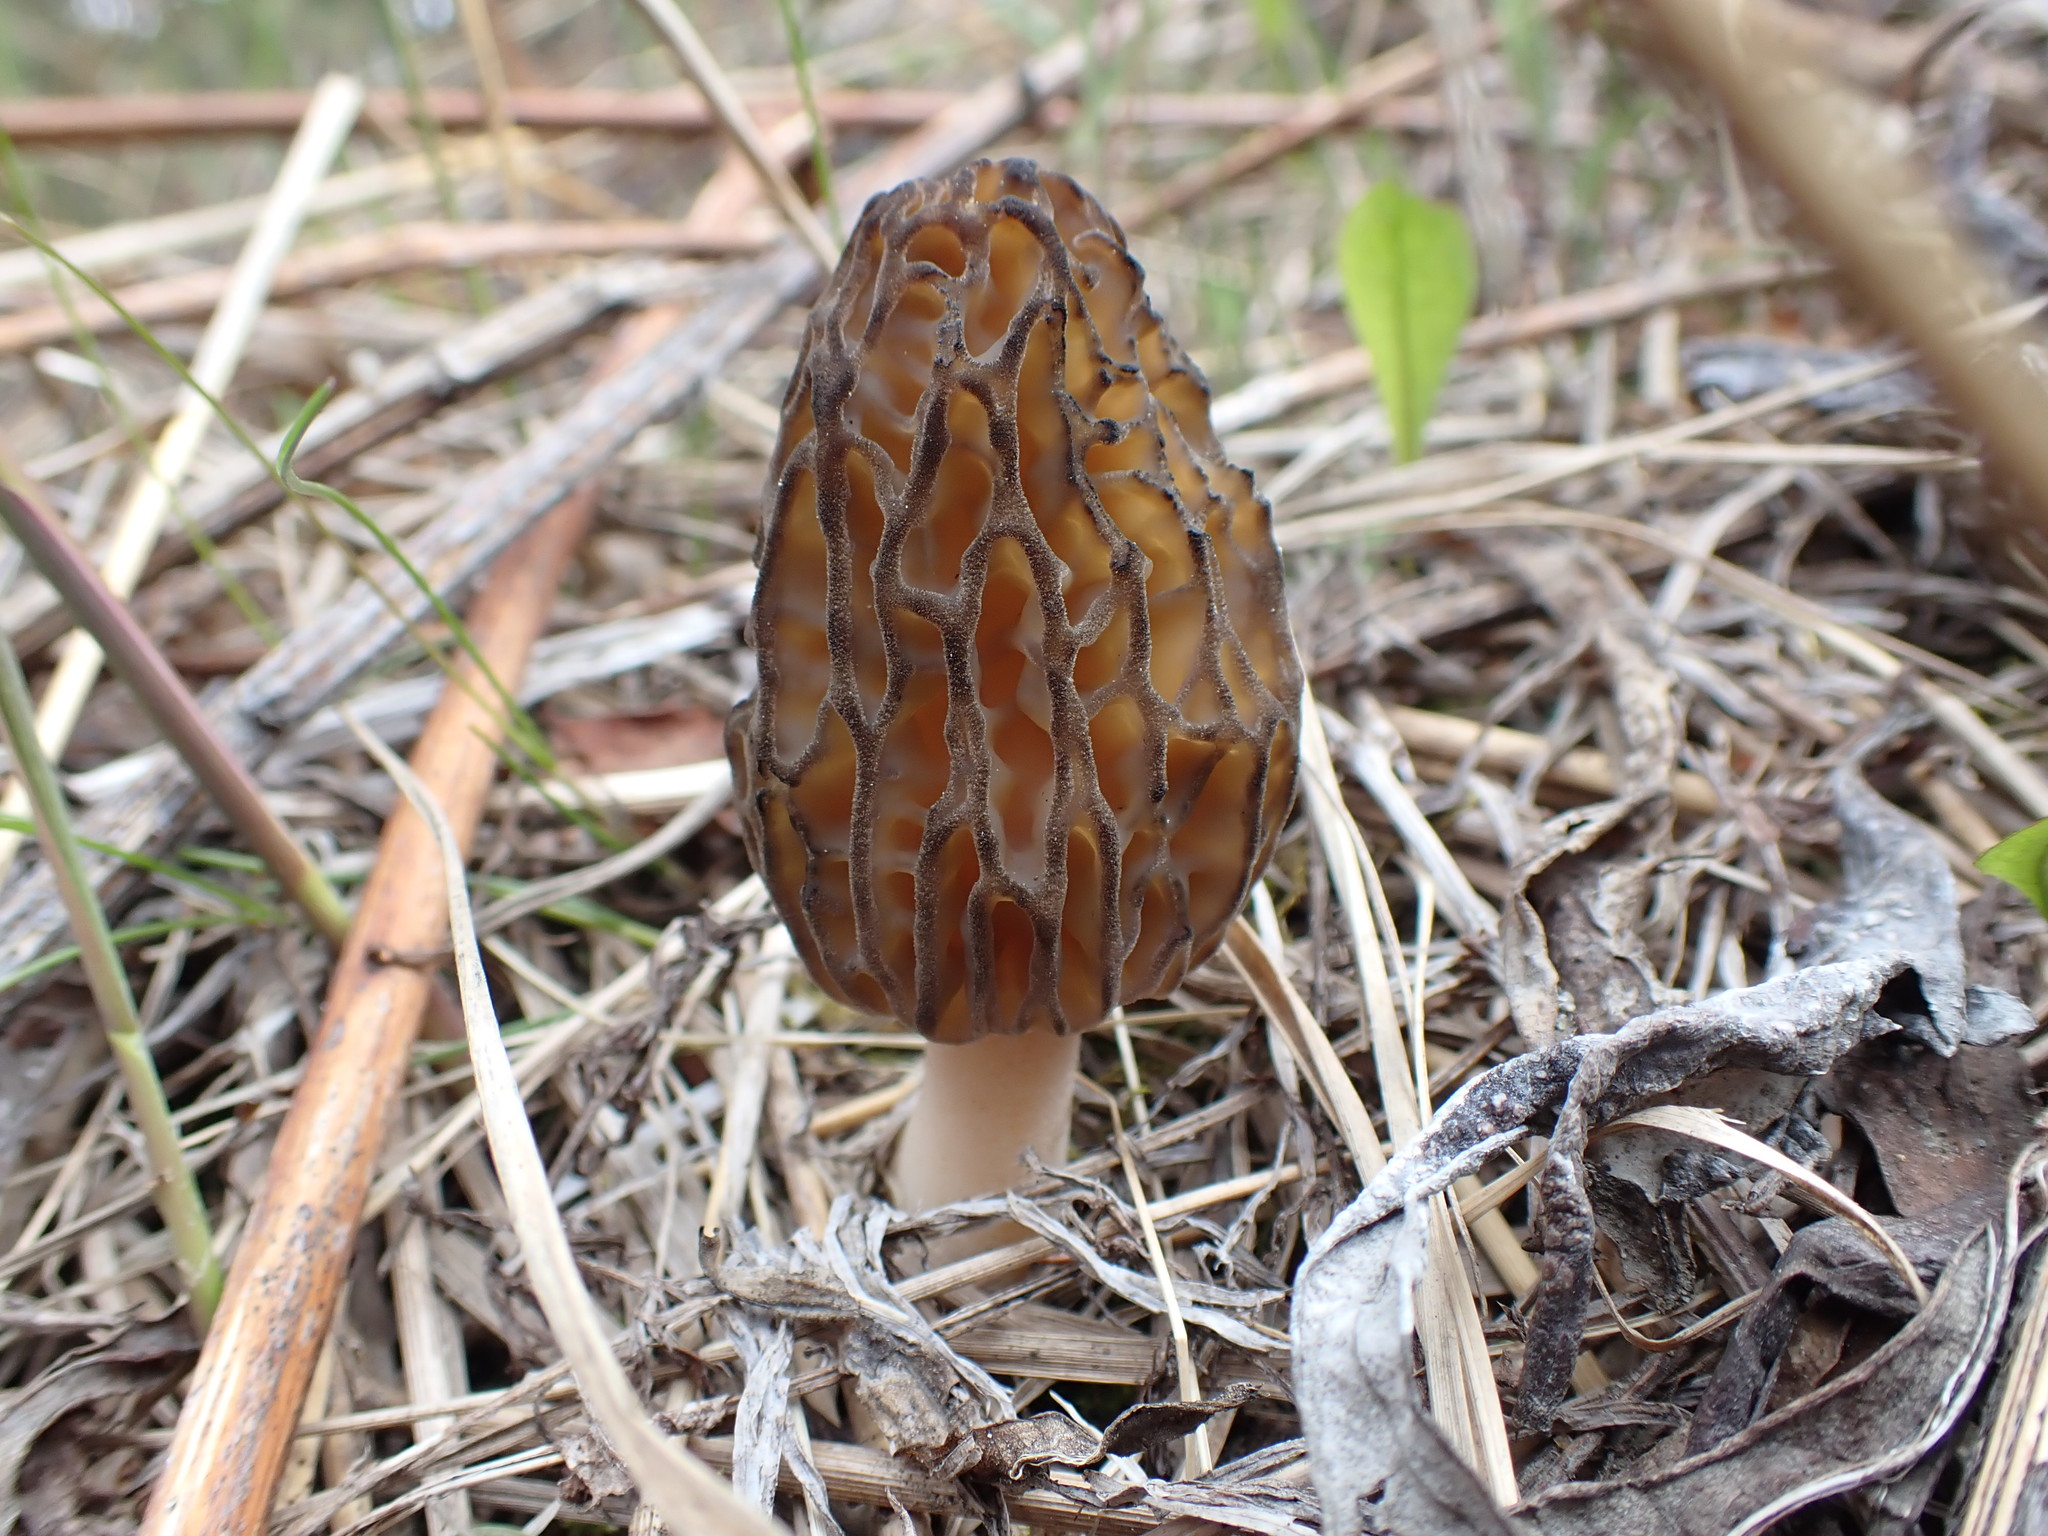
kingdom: Fungi
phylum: Ascomycota
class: Pezizomycetes
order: Pezizales
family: Morchellaceae
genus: Morchella
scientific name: Morchella norvegiensis
